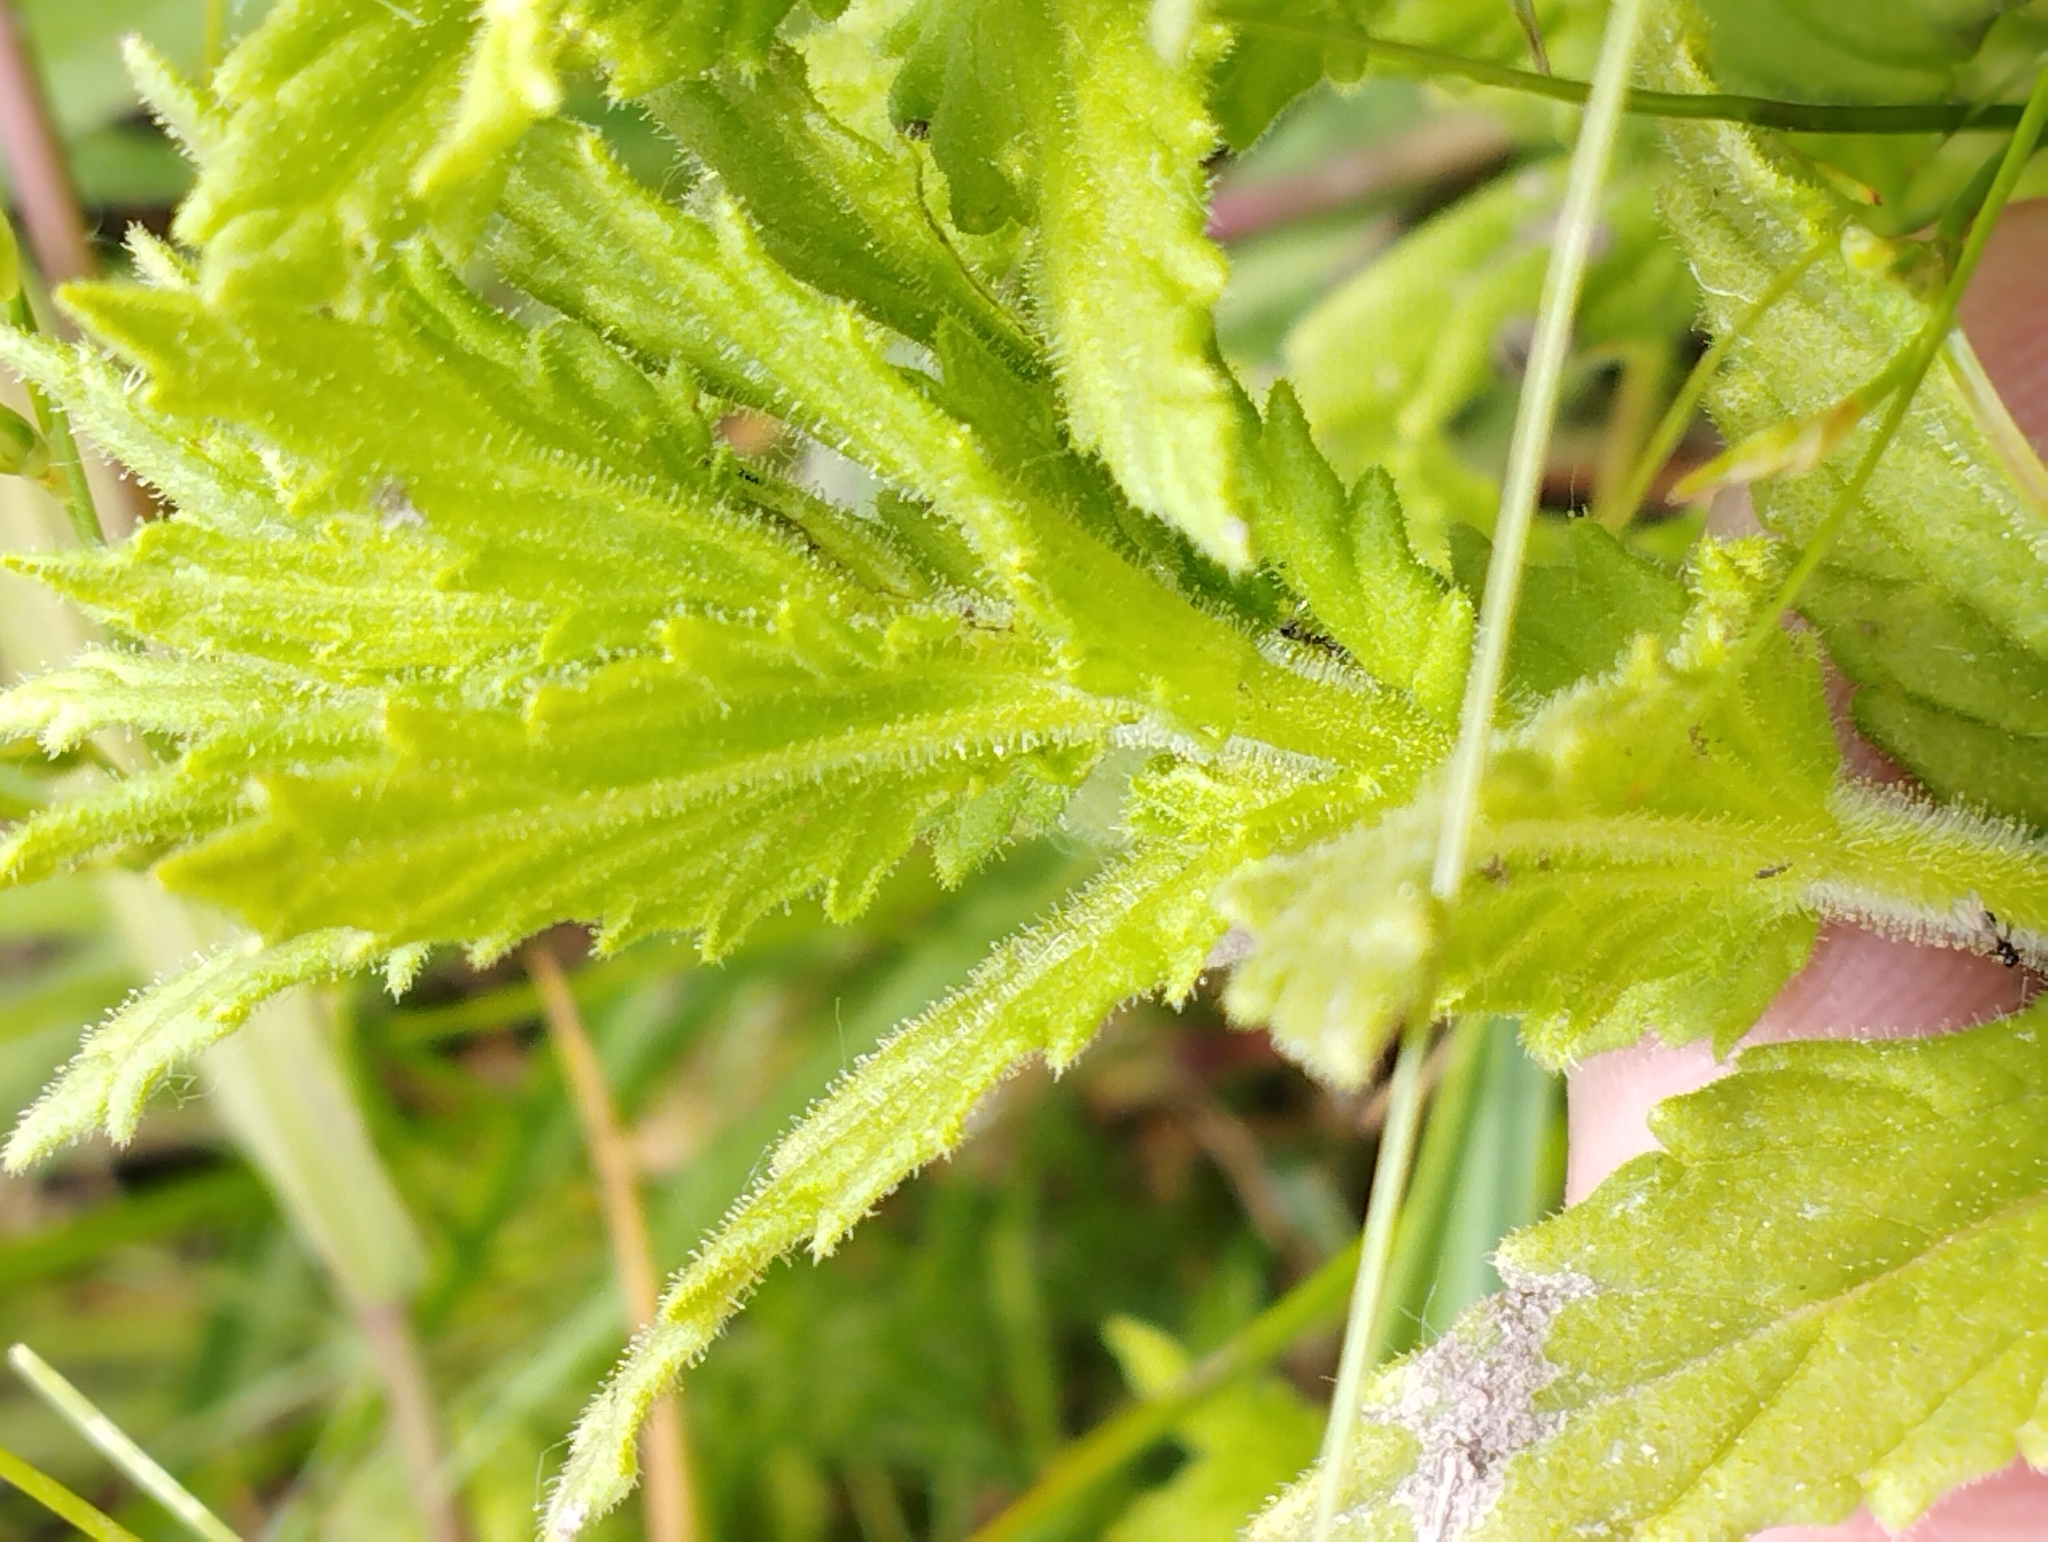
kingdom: Plantae
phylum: Tracheophyta
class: Magnoliopsida
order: Lamiales
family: Orobanchaceae
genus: Bellardia
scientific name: Bellardia viscosa
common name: Sticky parentucellia
